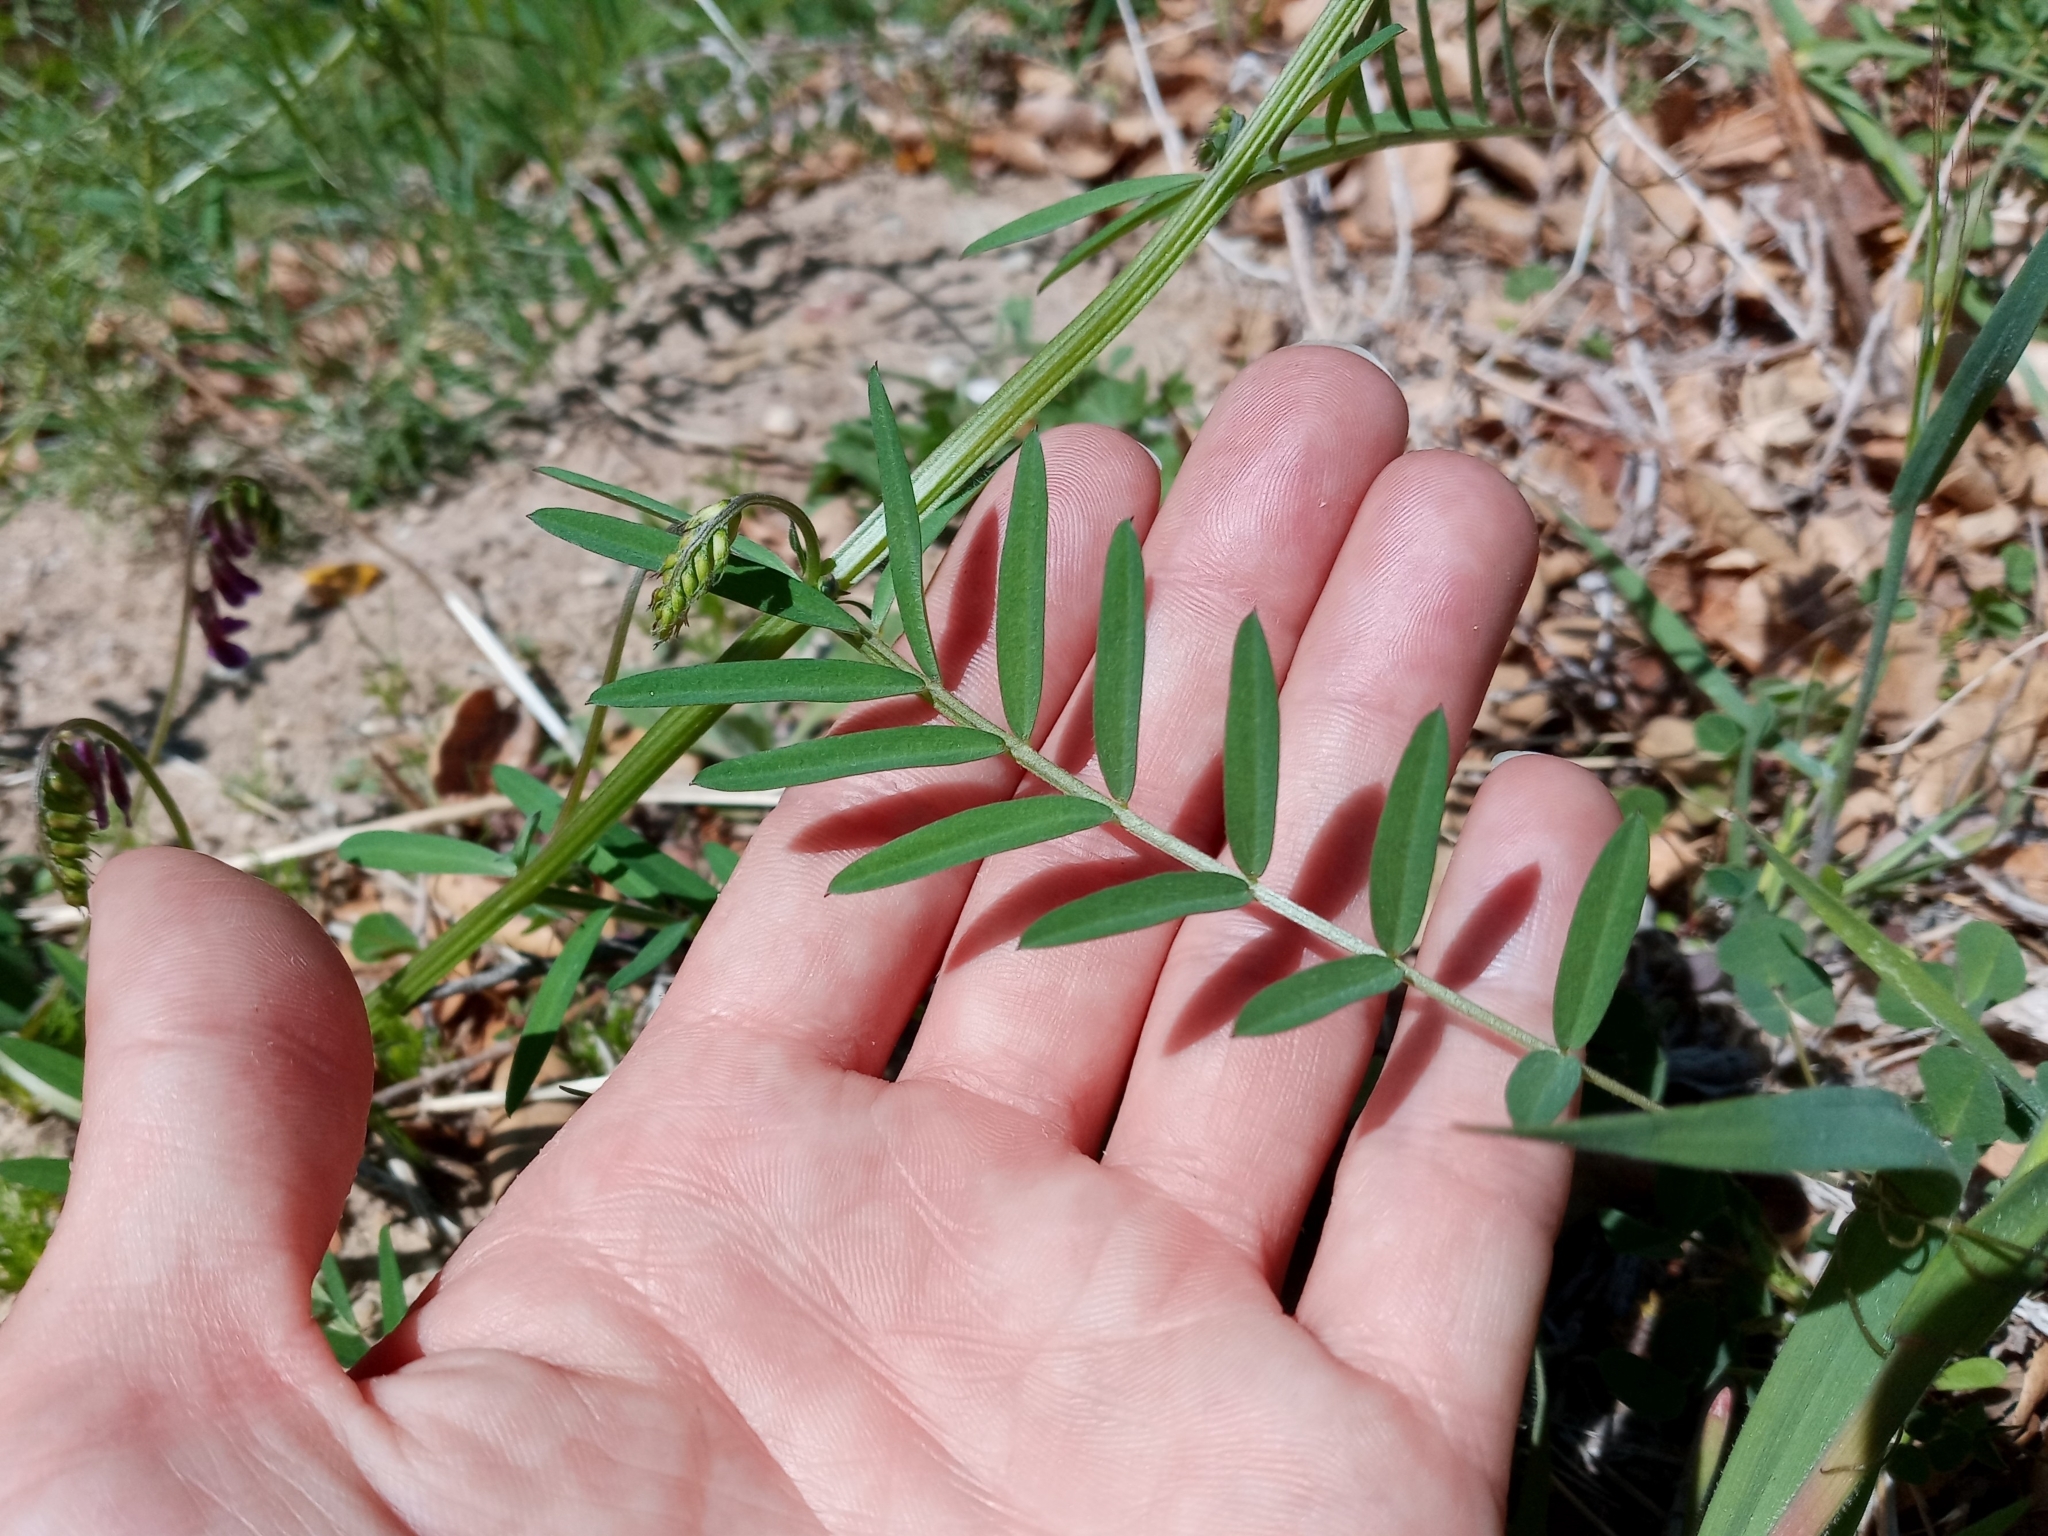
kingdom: Plantae
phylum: Tracheophyta
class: Magnoliopsida
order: Fabales
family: Fabaceae
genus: Vicia
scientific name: Vicia villosa
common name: Fodder vetch
